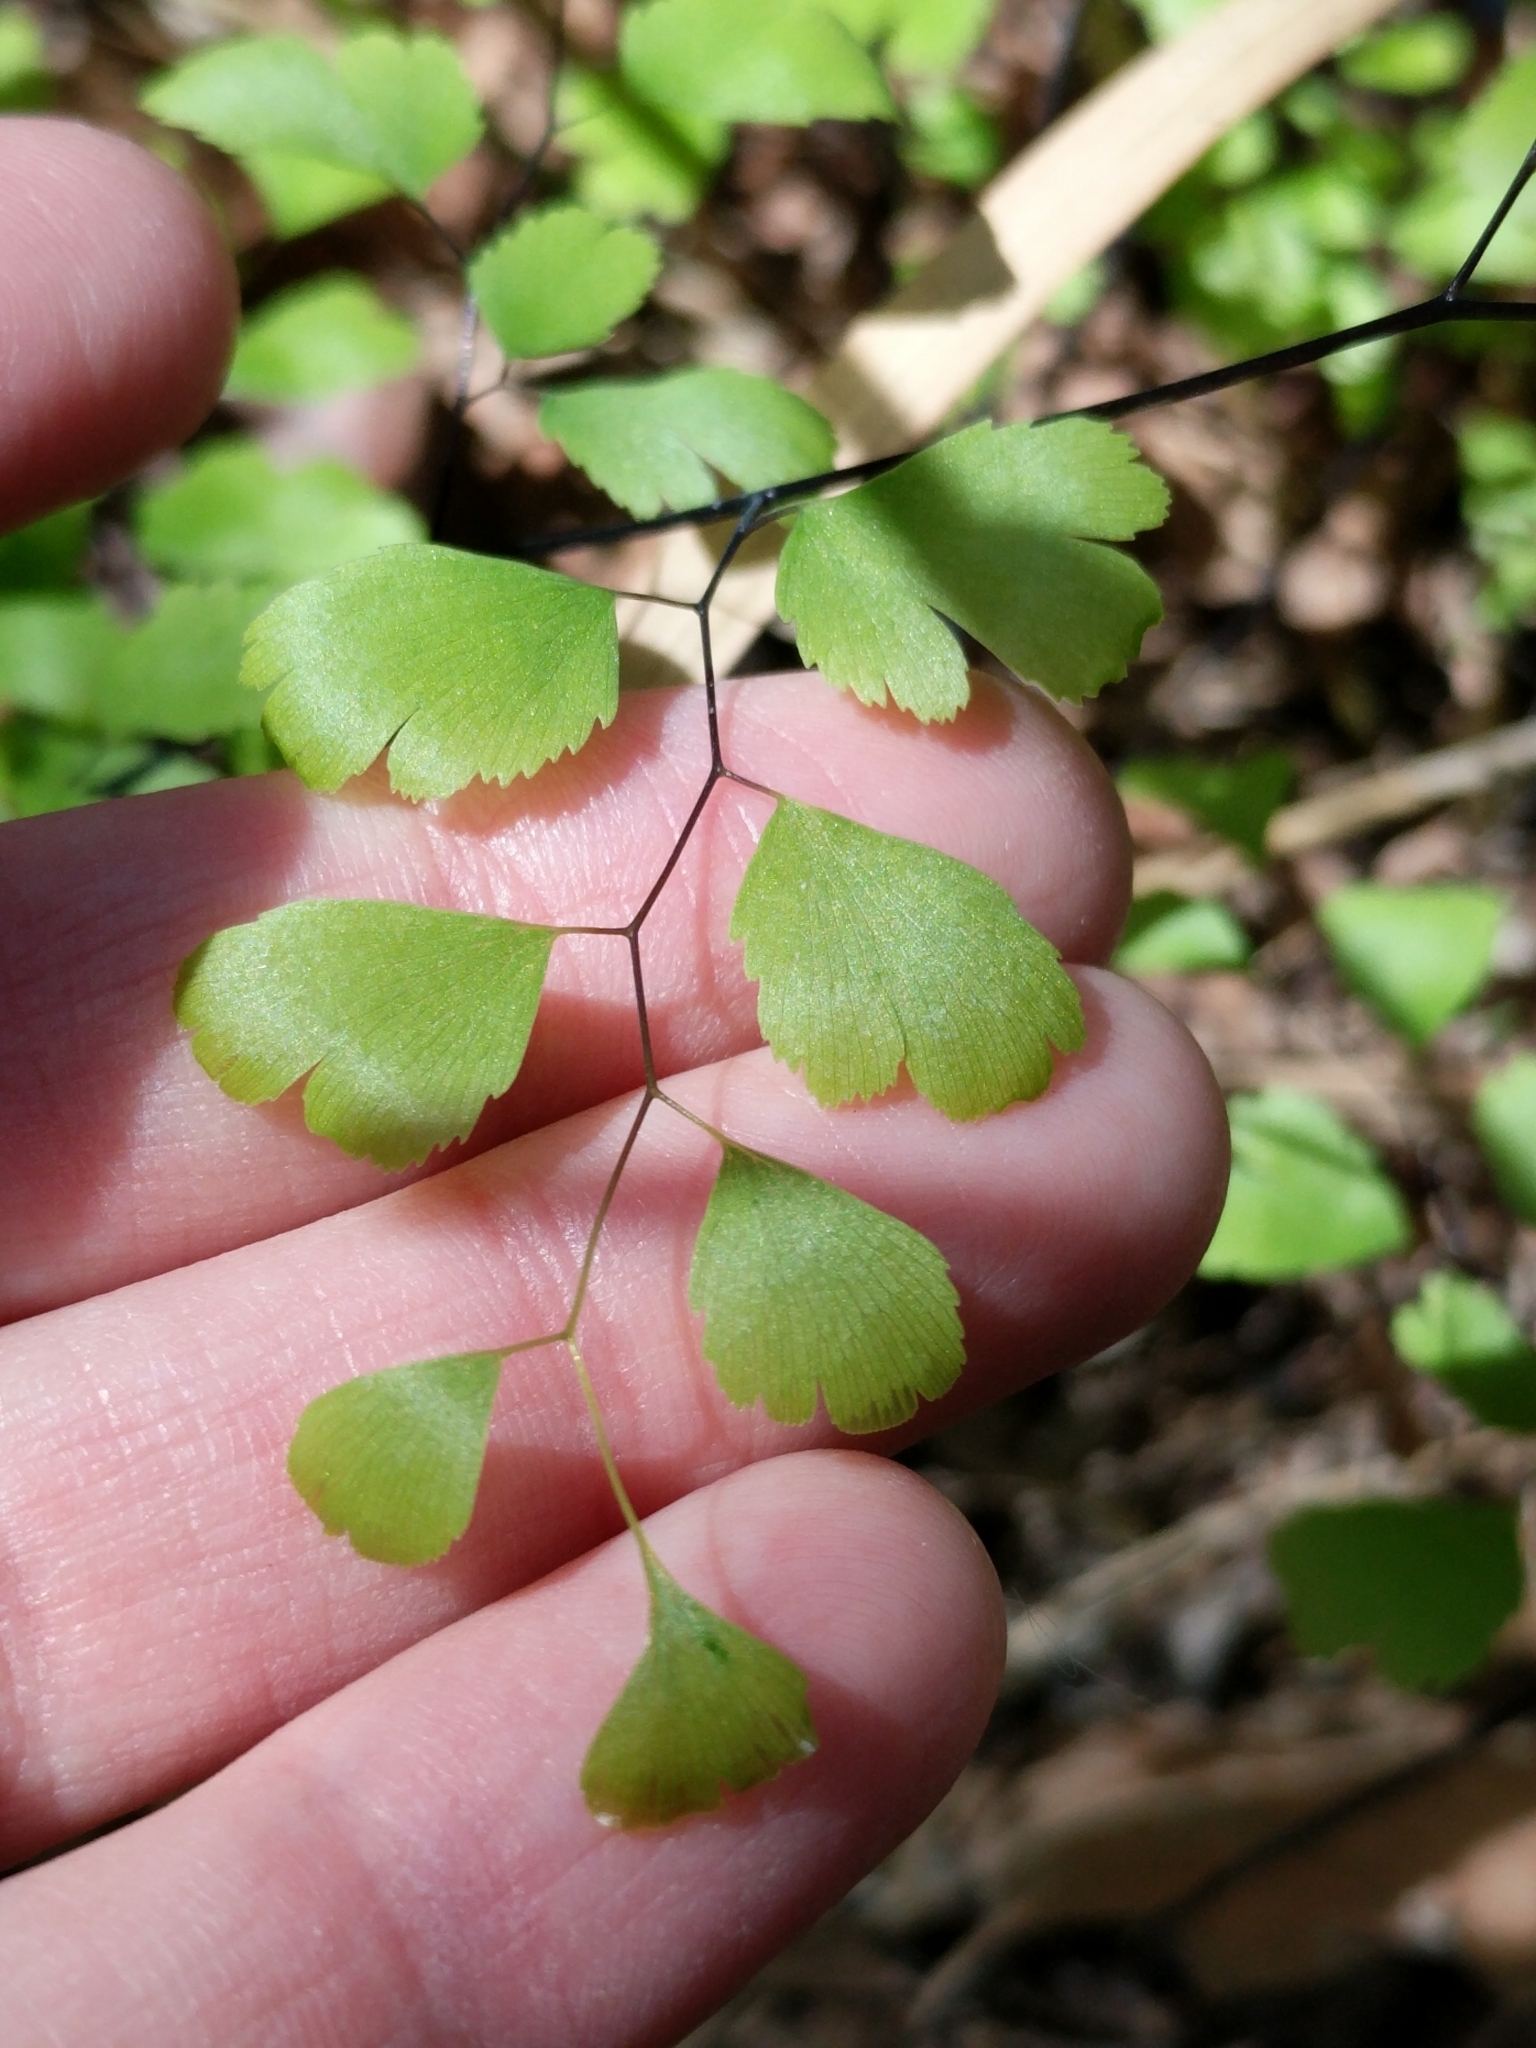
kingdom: Plantae
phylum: Tracheophyta
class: Polypodiopsida
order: Polypodiales
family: Pteridaceae
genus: Adiantum
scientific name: Adiantum capillus-veneris
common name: Maidenhair fern
